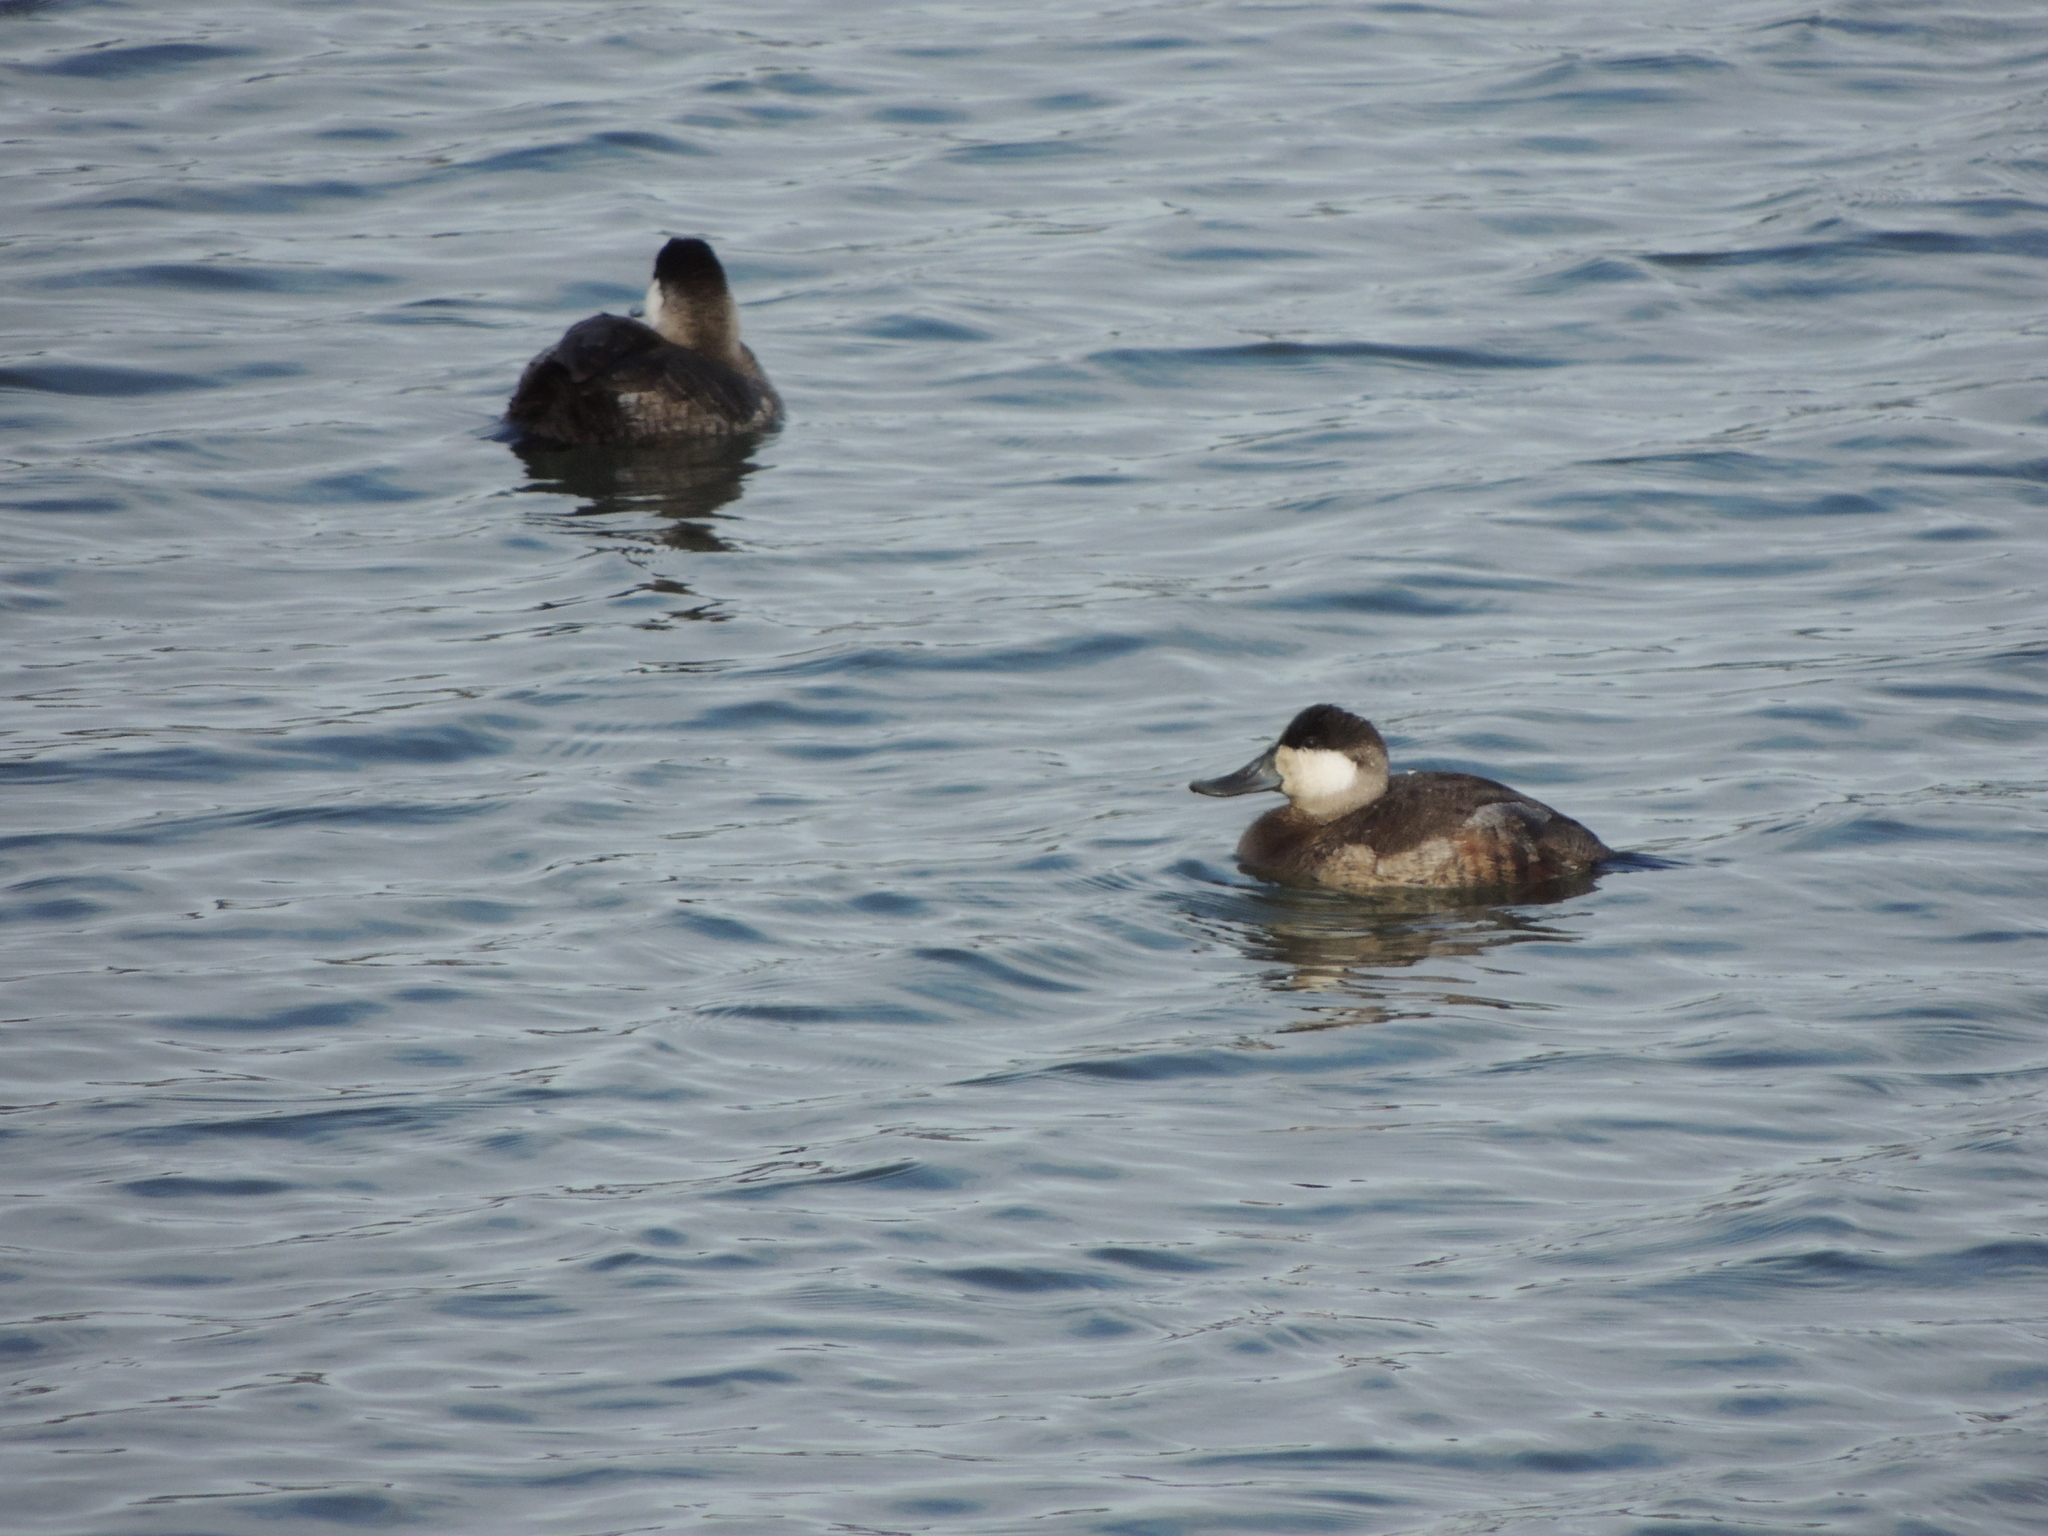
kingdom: Animalia
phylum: Chordata
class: Aves
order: Anseriformes
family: Anatidae
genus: Oxyura
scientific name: Oxyura jamaicensis
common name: Ruddy duck
